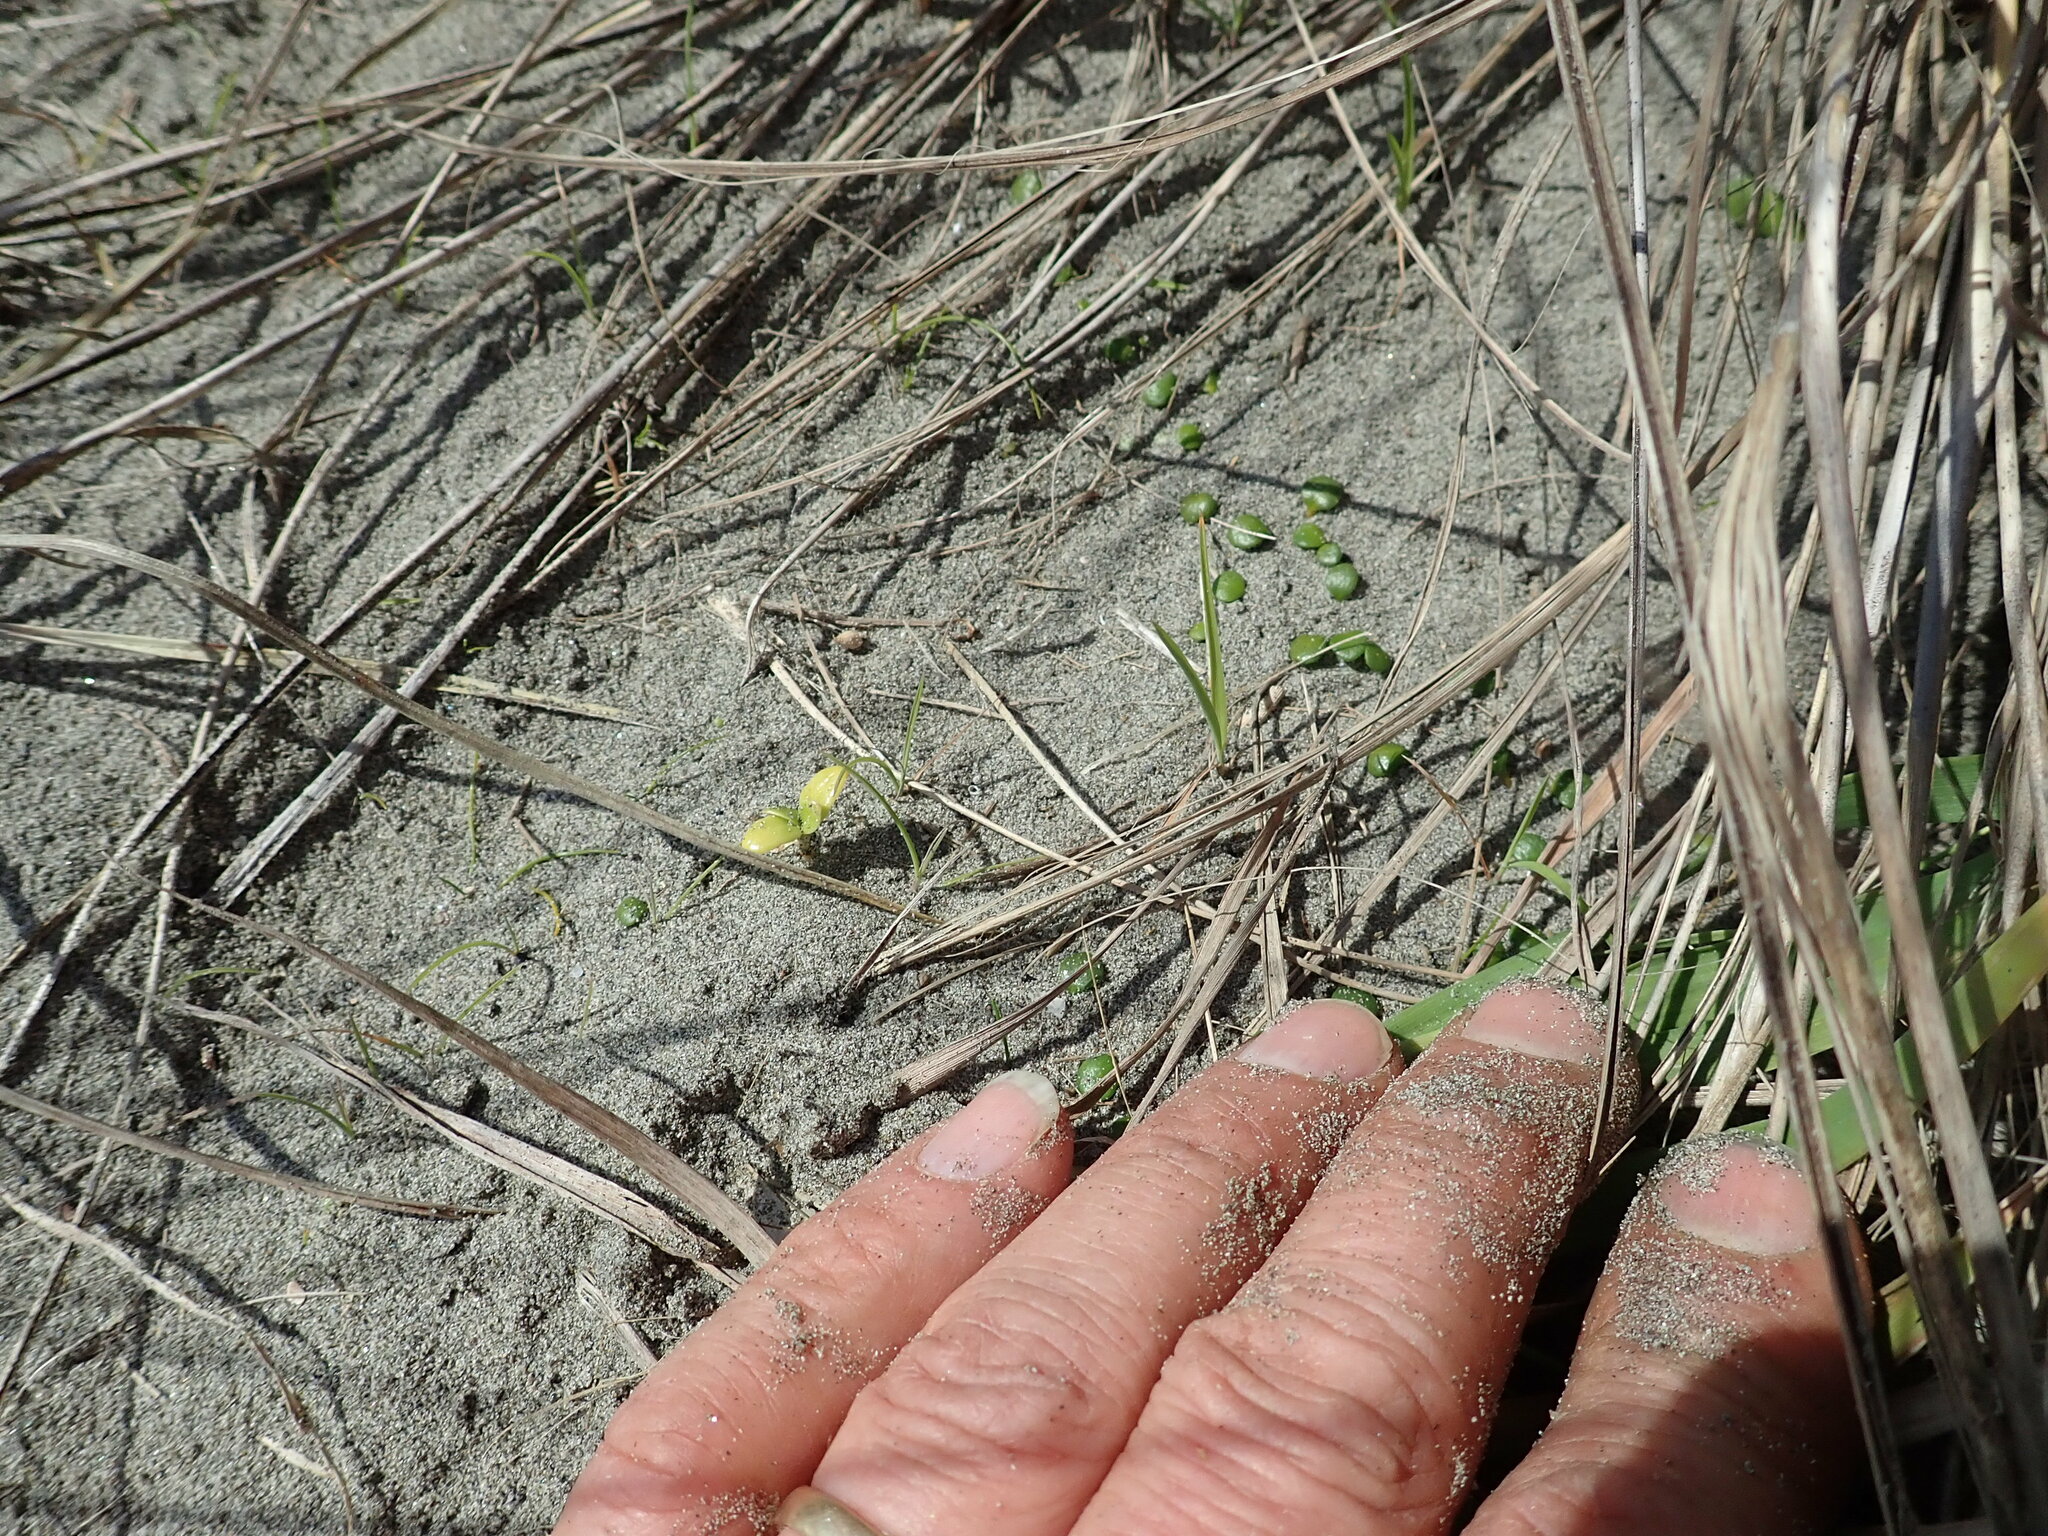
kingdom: Plantae
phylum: Tracheophyta
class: Magnoliopsida
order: Gentianales
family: Rubiaceae
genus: Coprosma
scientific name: Coprosma repens
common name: Tree bedstraw
